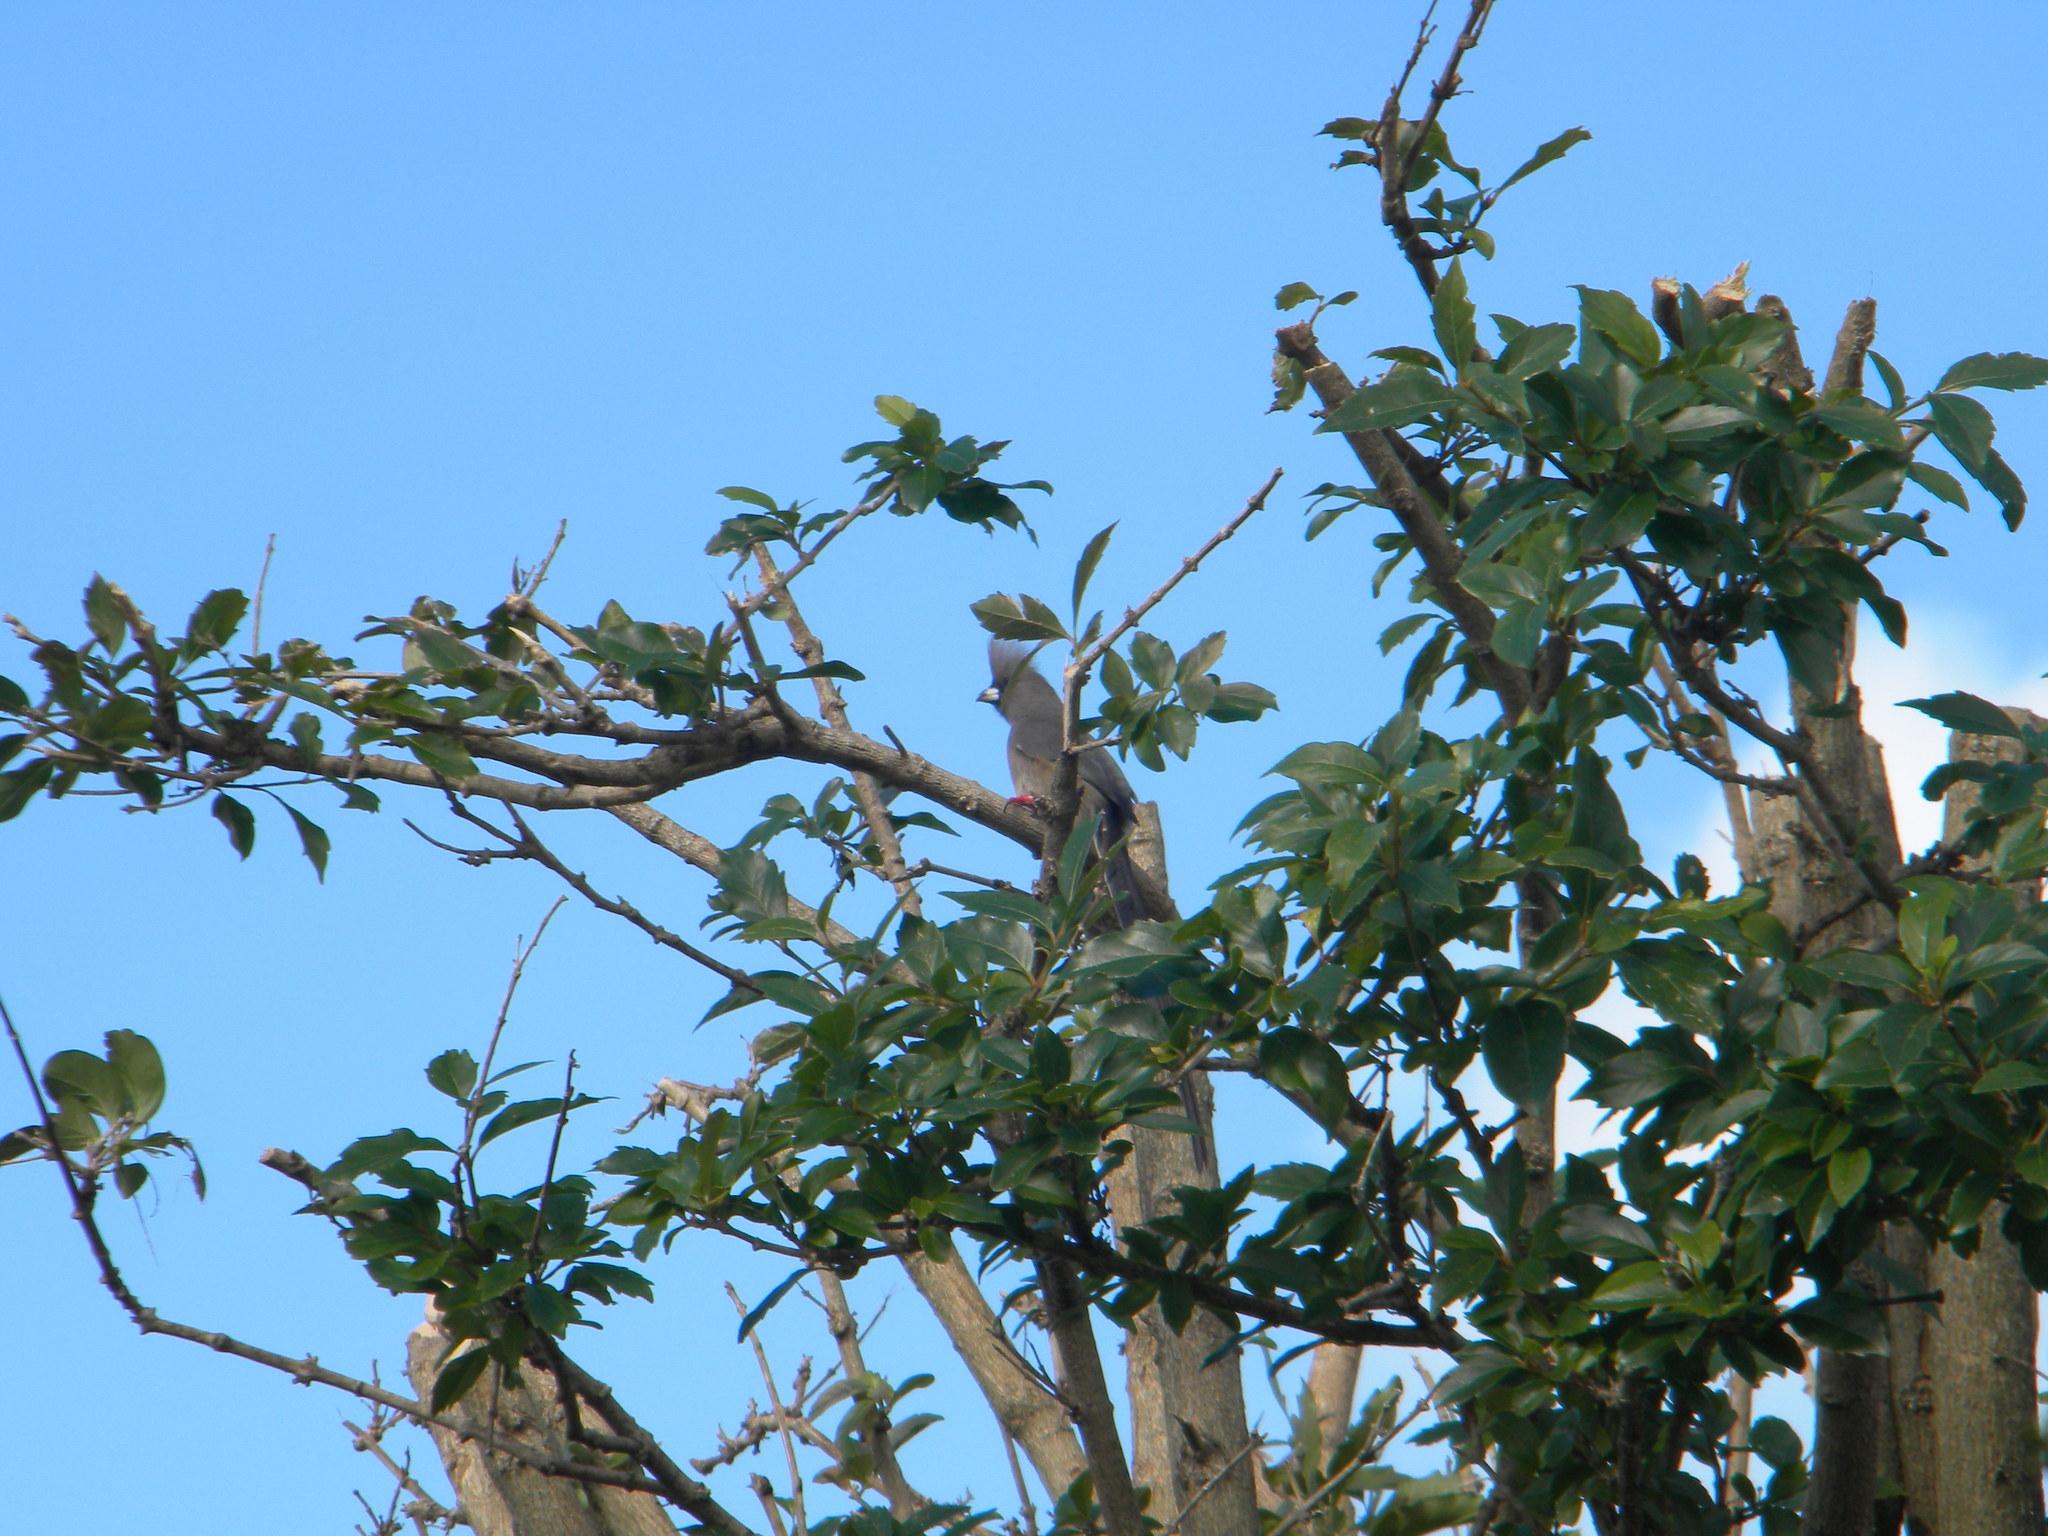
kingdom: Animalia
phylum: Chordata
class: Aves
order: Coliiformes
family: Coliidae
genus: Colius
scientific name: Colius colius
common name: White-backed mousebird
